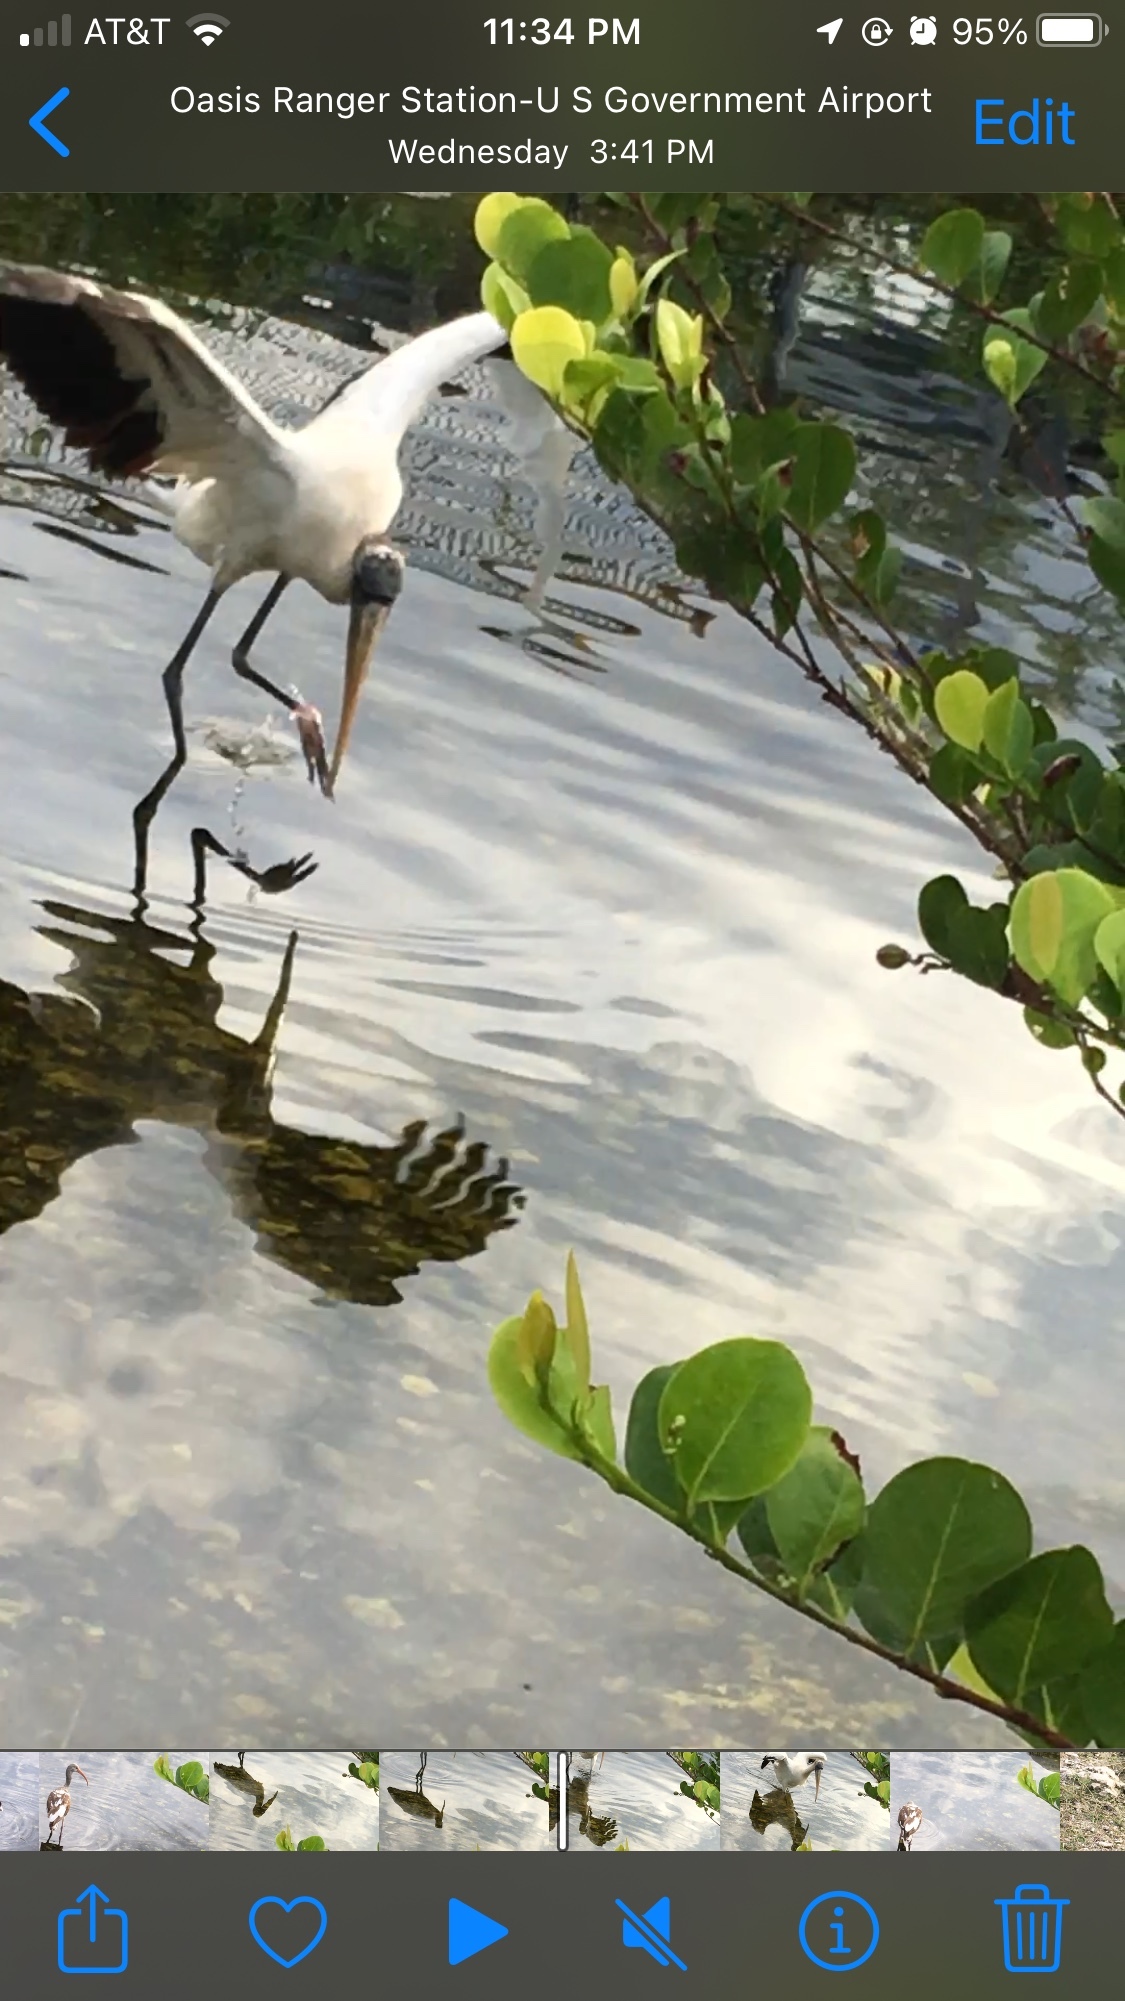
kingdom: Animalia
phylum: Chordata
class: Aves
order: Ciconiiformes
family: Ciconiidae
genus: Mycteria
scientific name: Mycteria americana
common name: Wood stork
